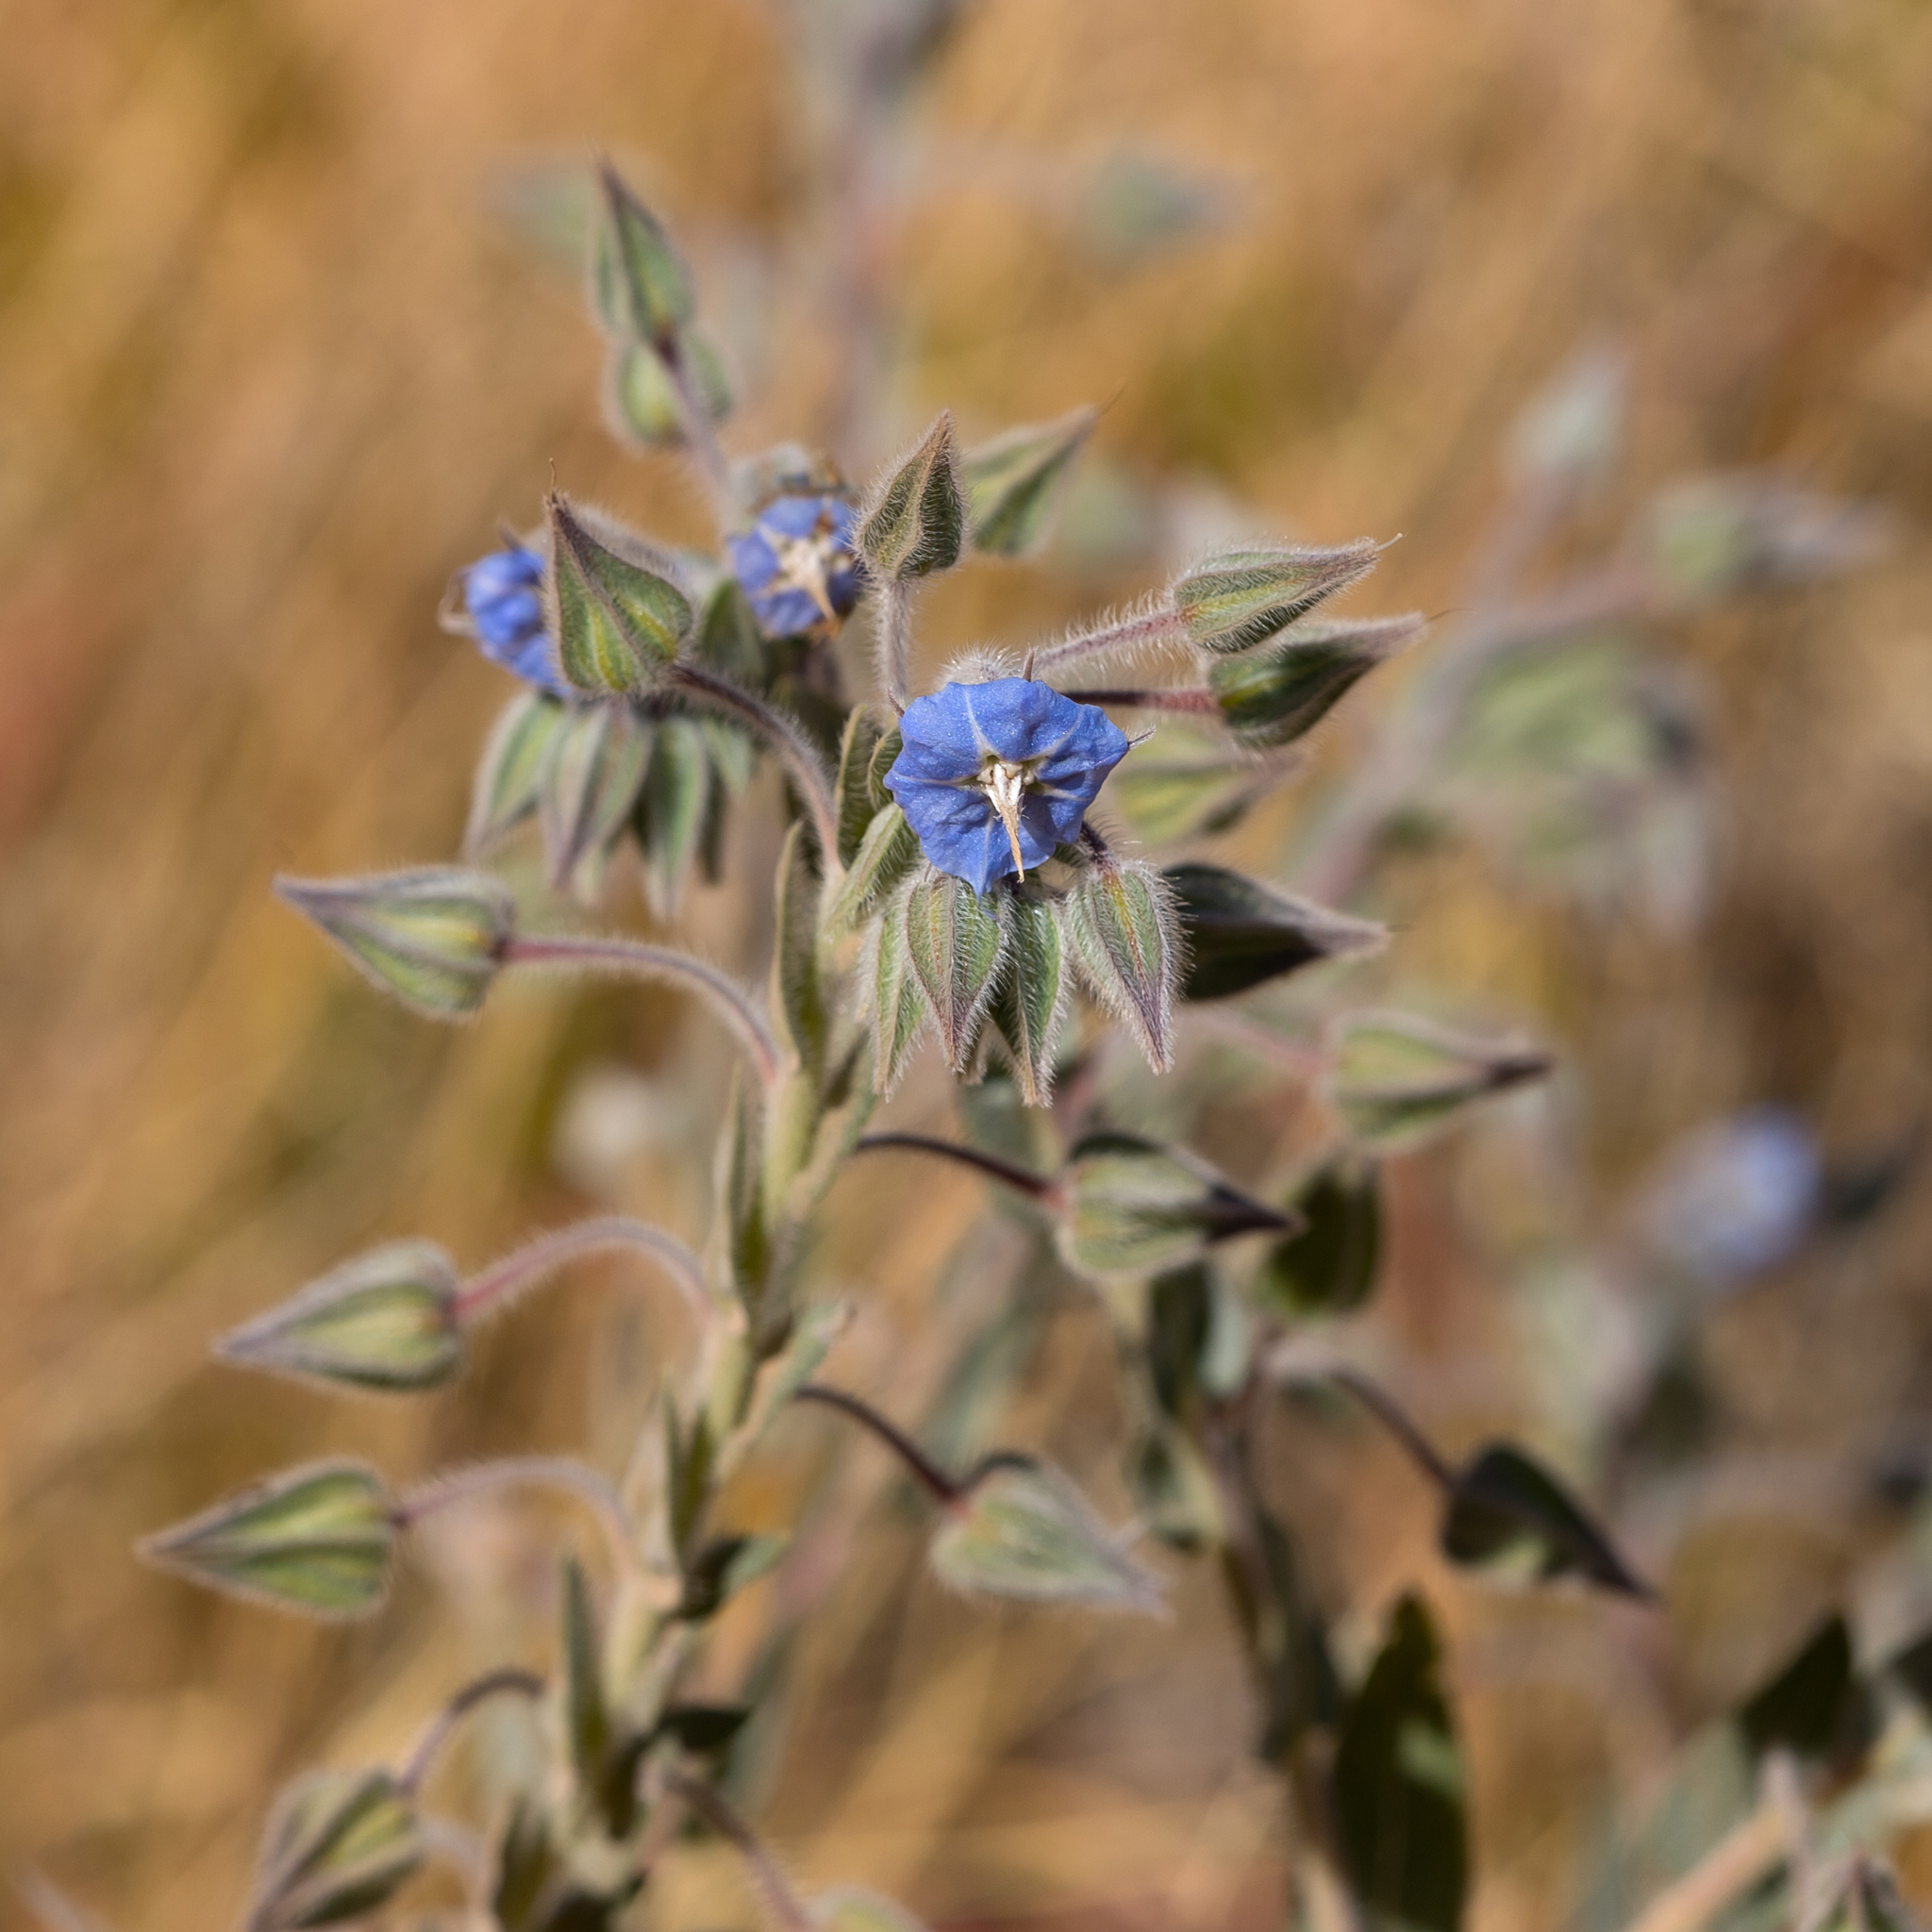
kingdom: Plantae
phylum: Tracheophyta
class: Magnoliopsida
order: Boraginales
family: Boraginaceae
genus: Trichodesma
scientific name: Trichodesma zeylanicum
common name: Camelbush
